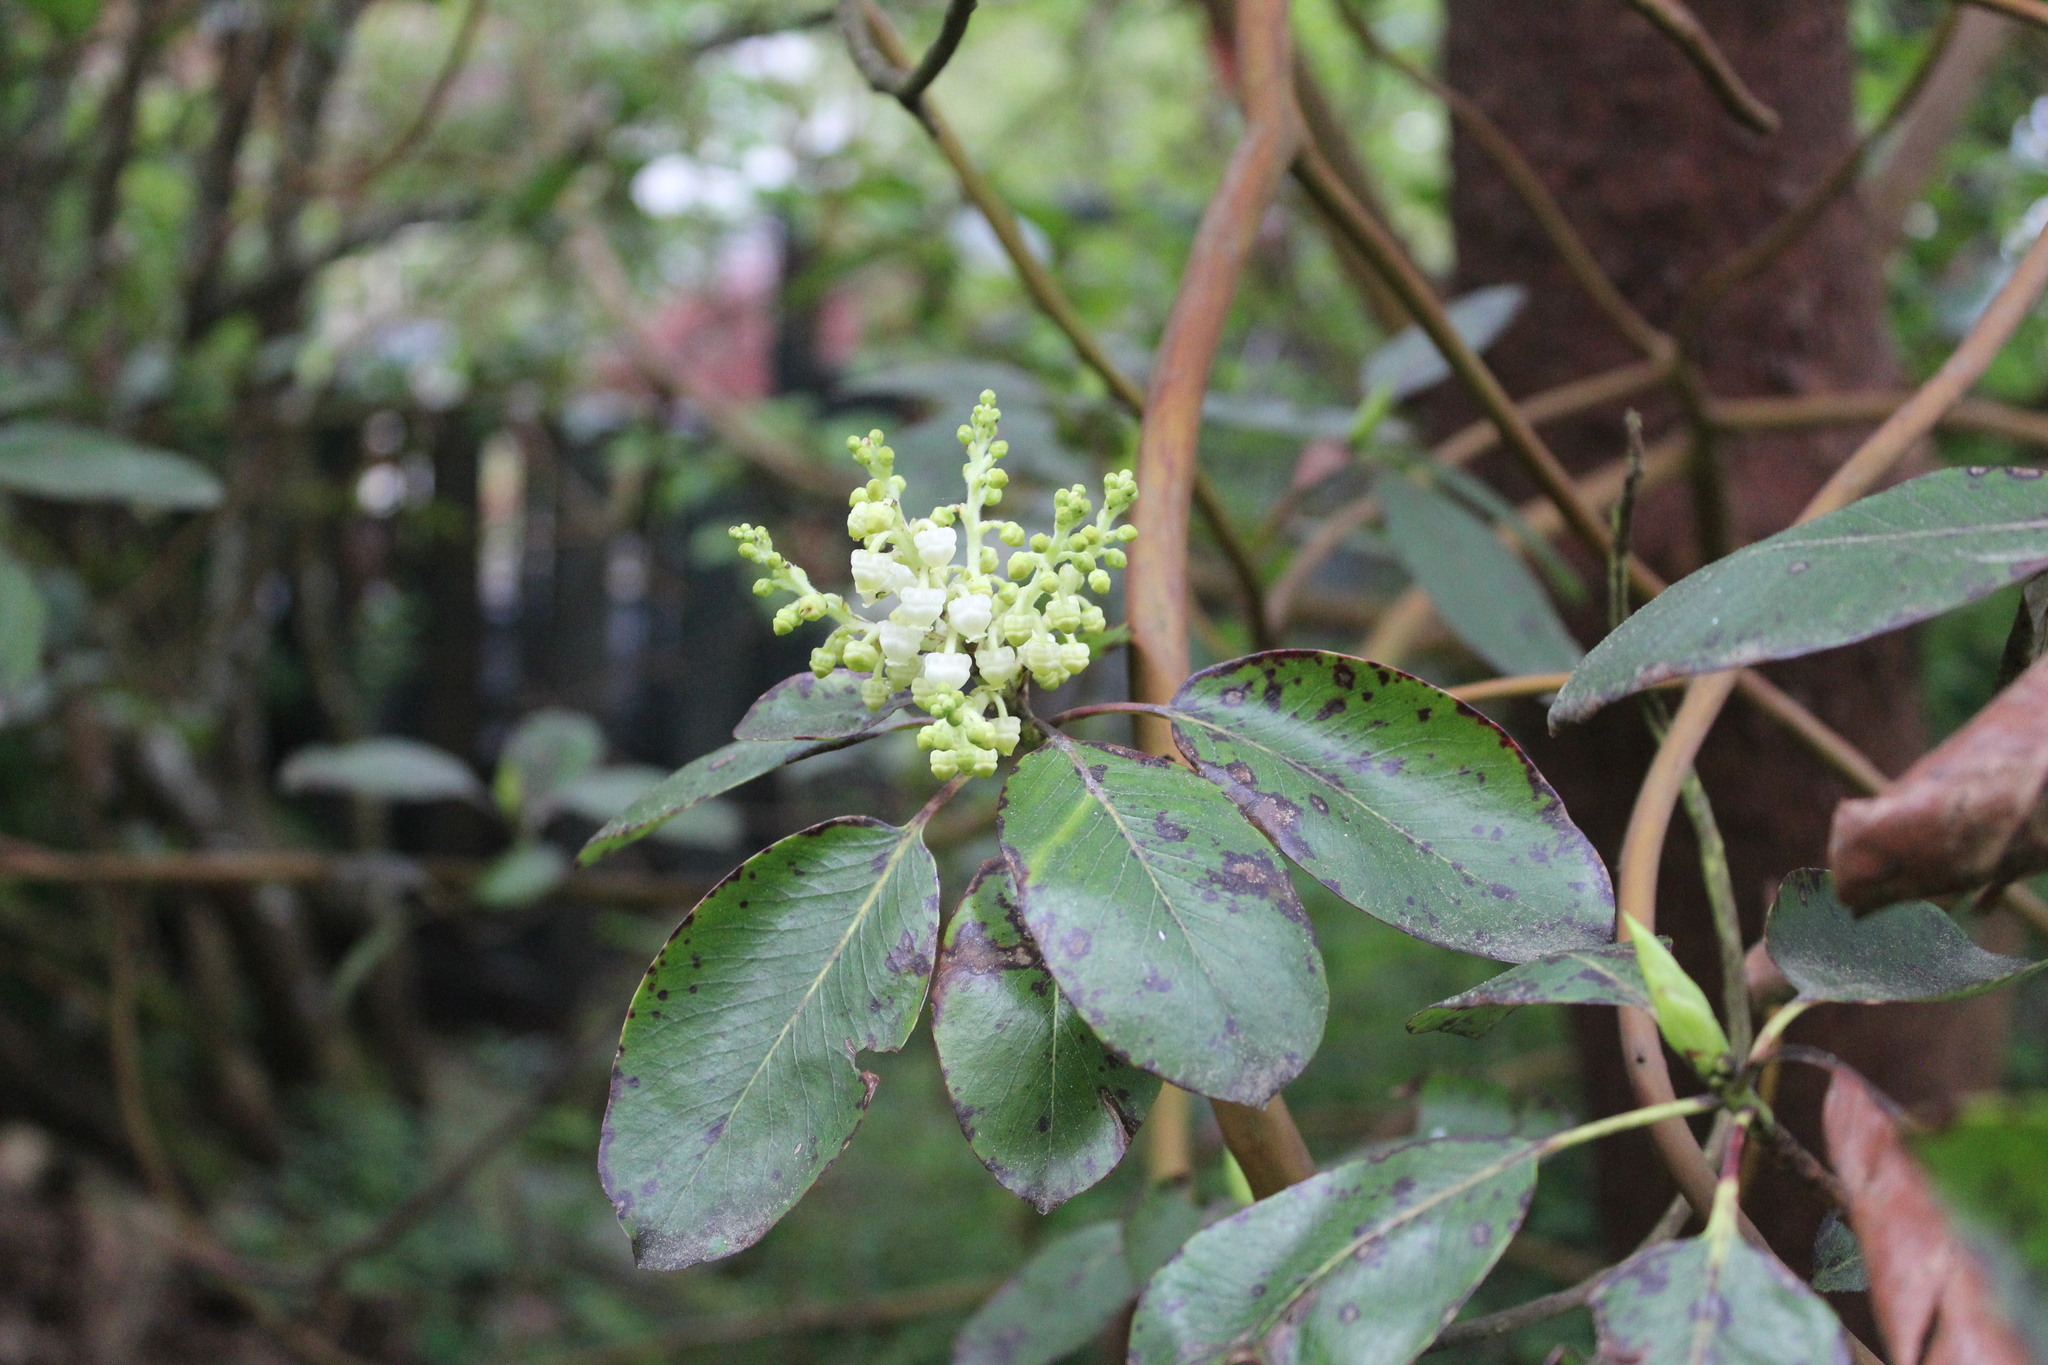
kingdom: Plantae
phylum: Tracheophyta
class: Magnoliopsida
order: Ericales
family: Ericaceae
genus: Arbutus
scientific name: Arbutus menziesii
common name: Pacific madrone
